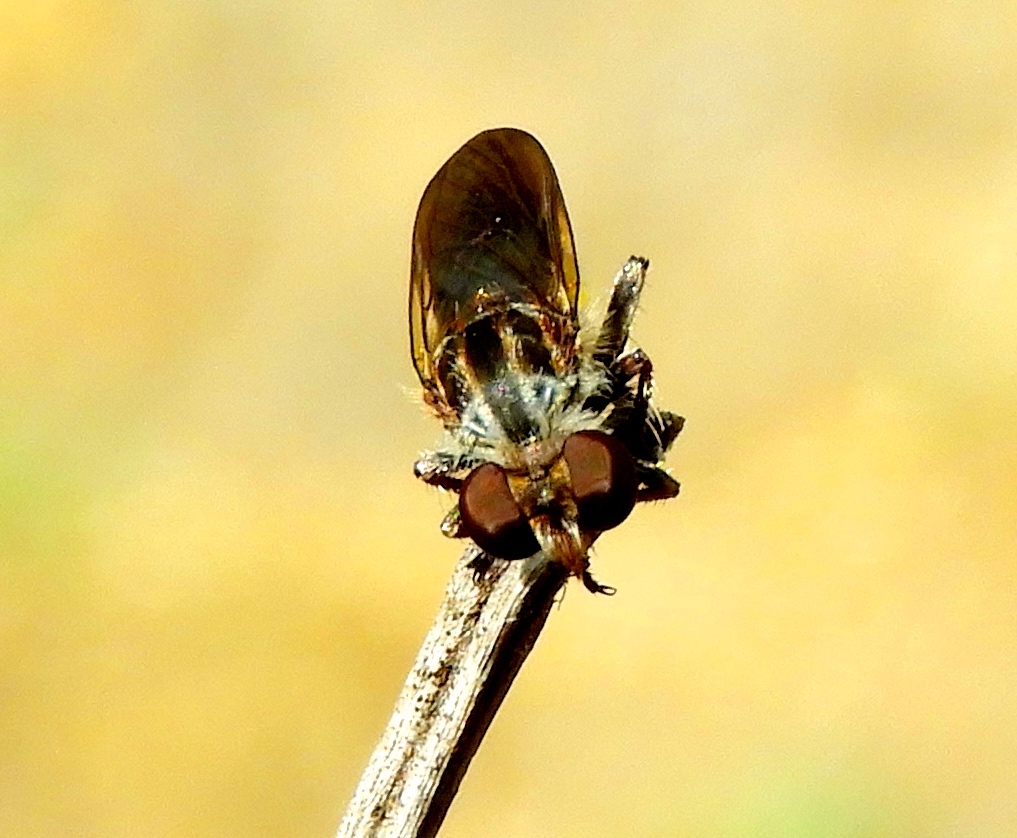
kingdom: Animalia
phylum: Arthropoda
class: Insecta
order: Diptera
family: Asilidae
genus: Heteropogon
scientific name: Heteropogon
